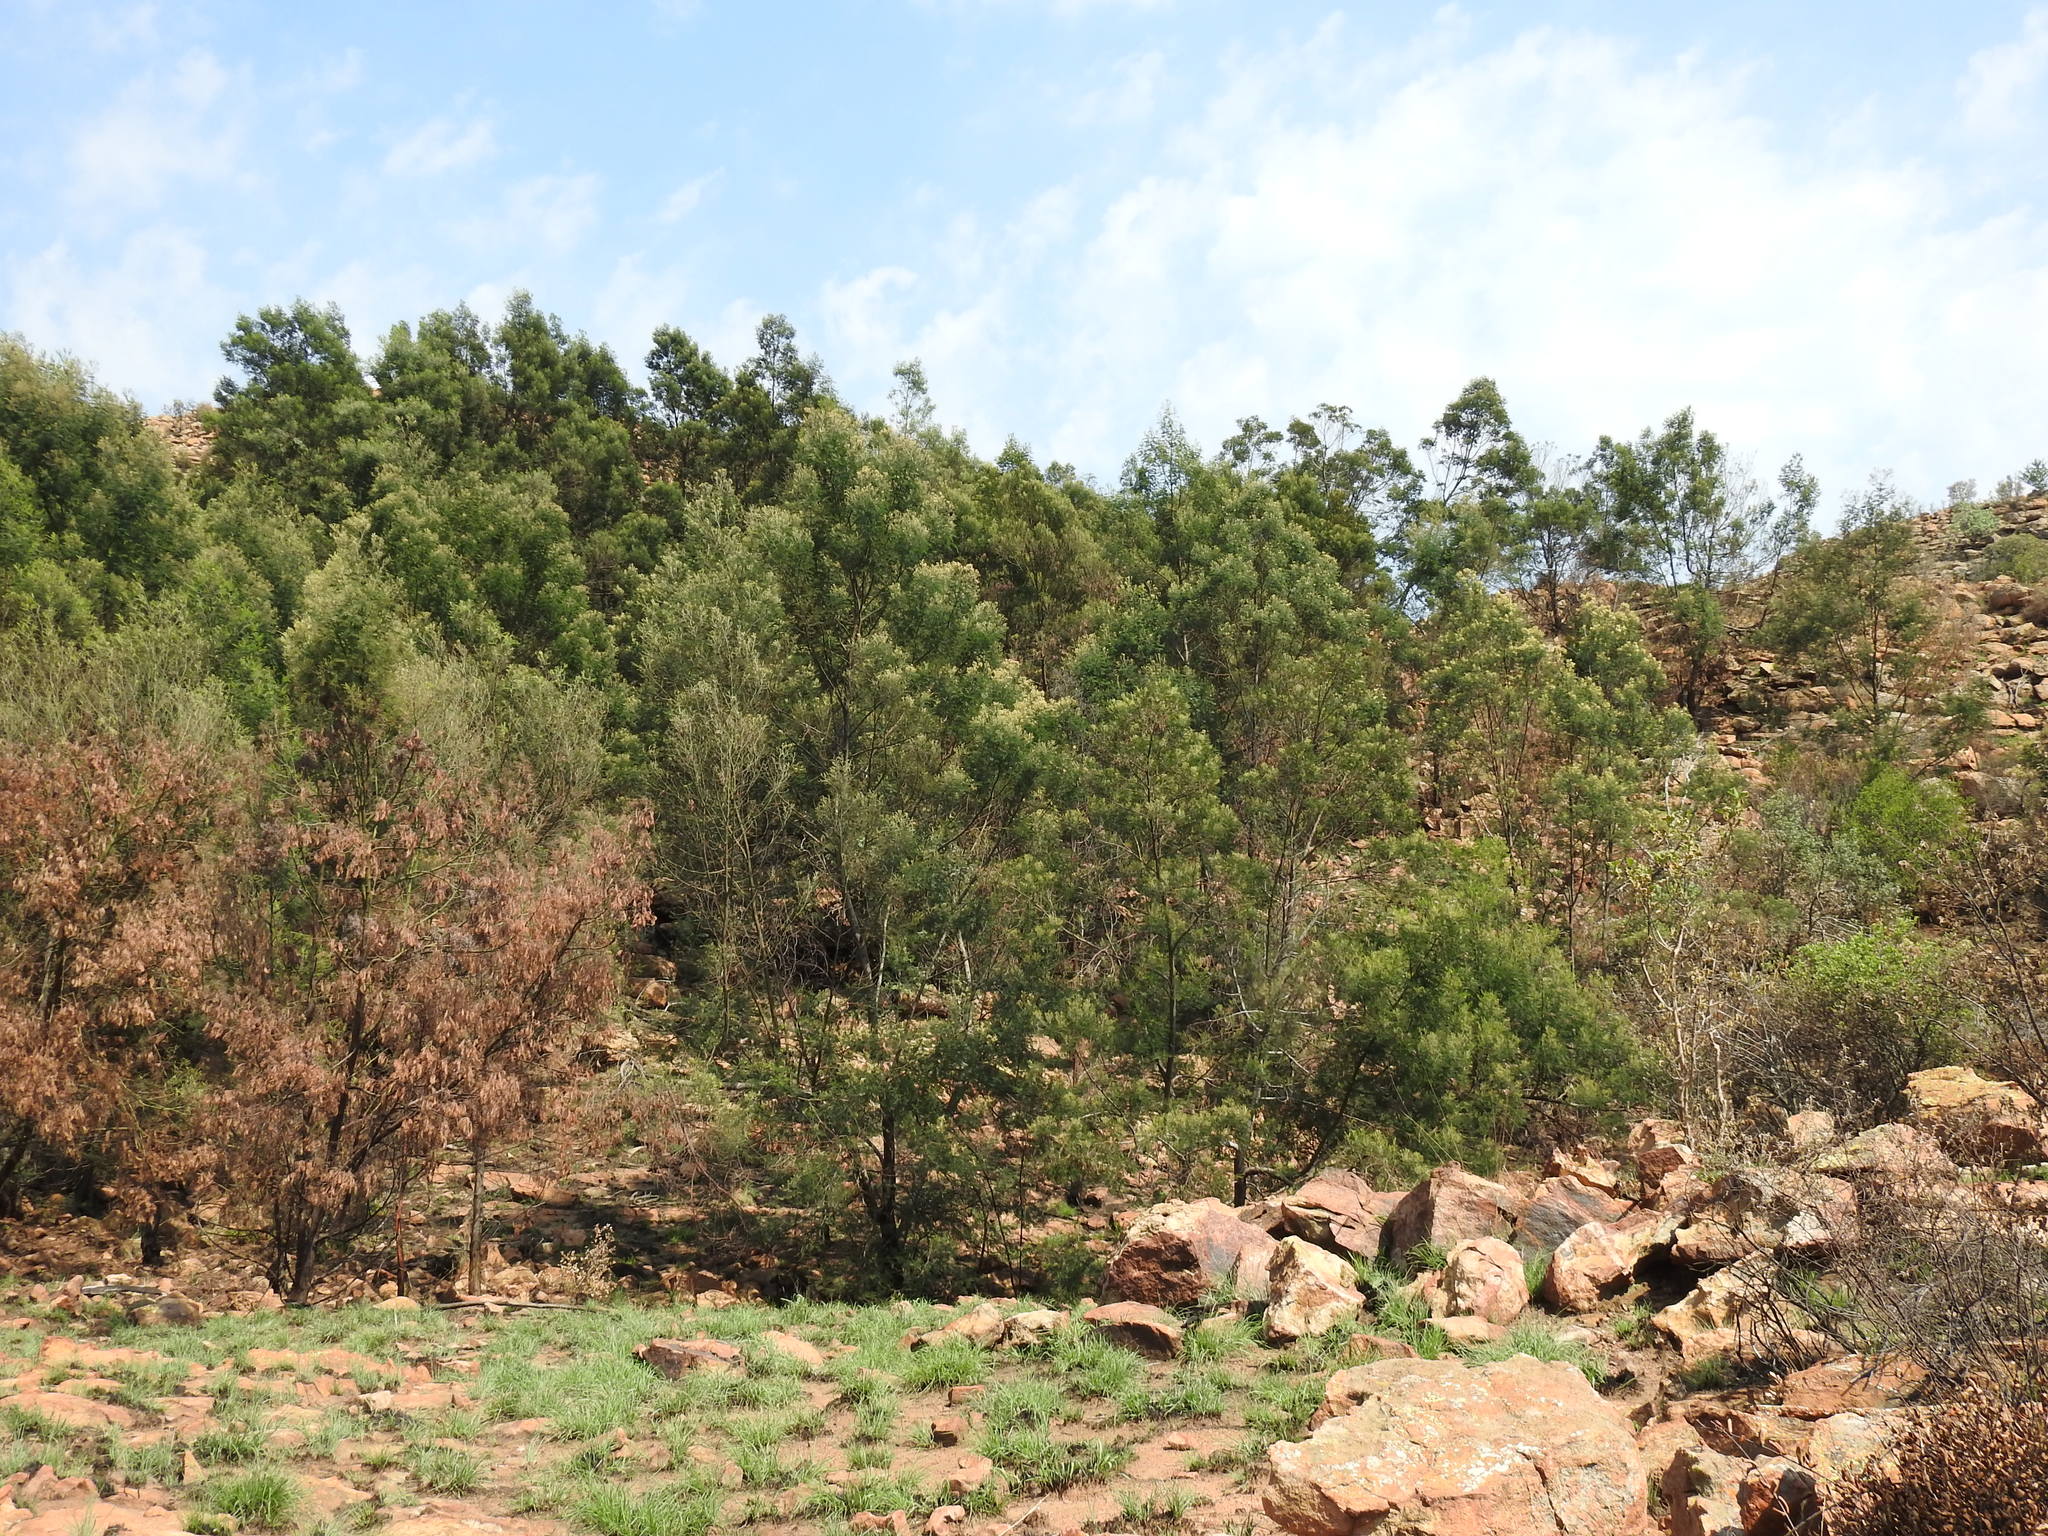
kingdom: Plantae
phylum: Tracheophyta
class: Magnoliopsida
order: Fabales
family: Fabaceae
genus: Acacia
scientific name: Acacia mearnsii
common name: Black wattle
